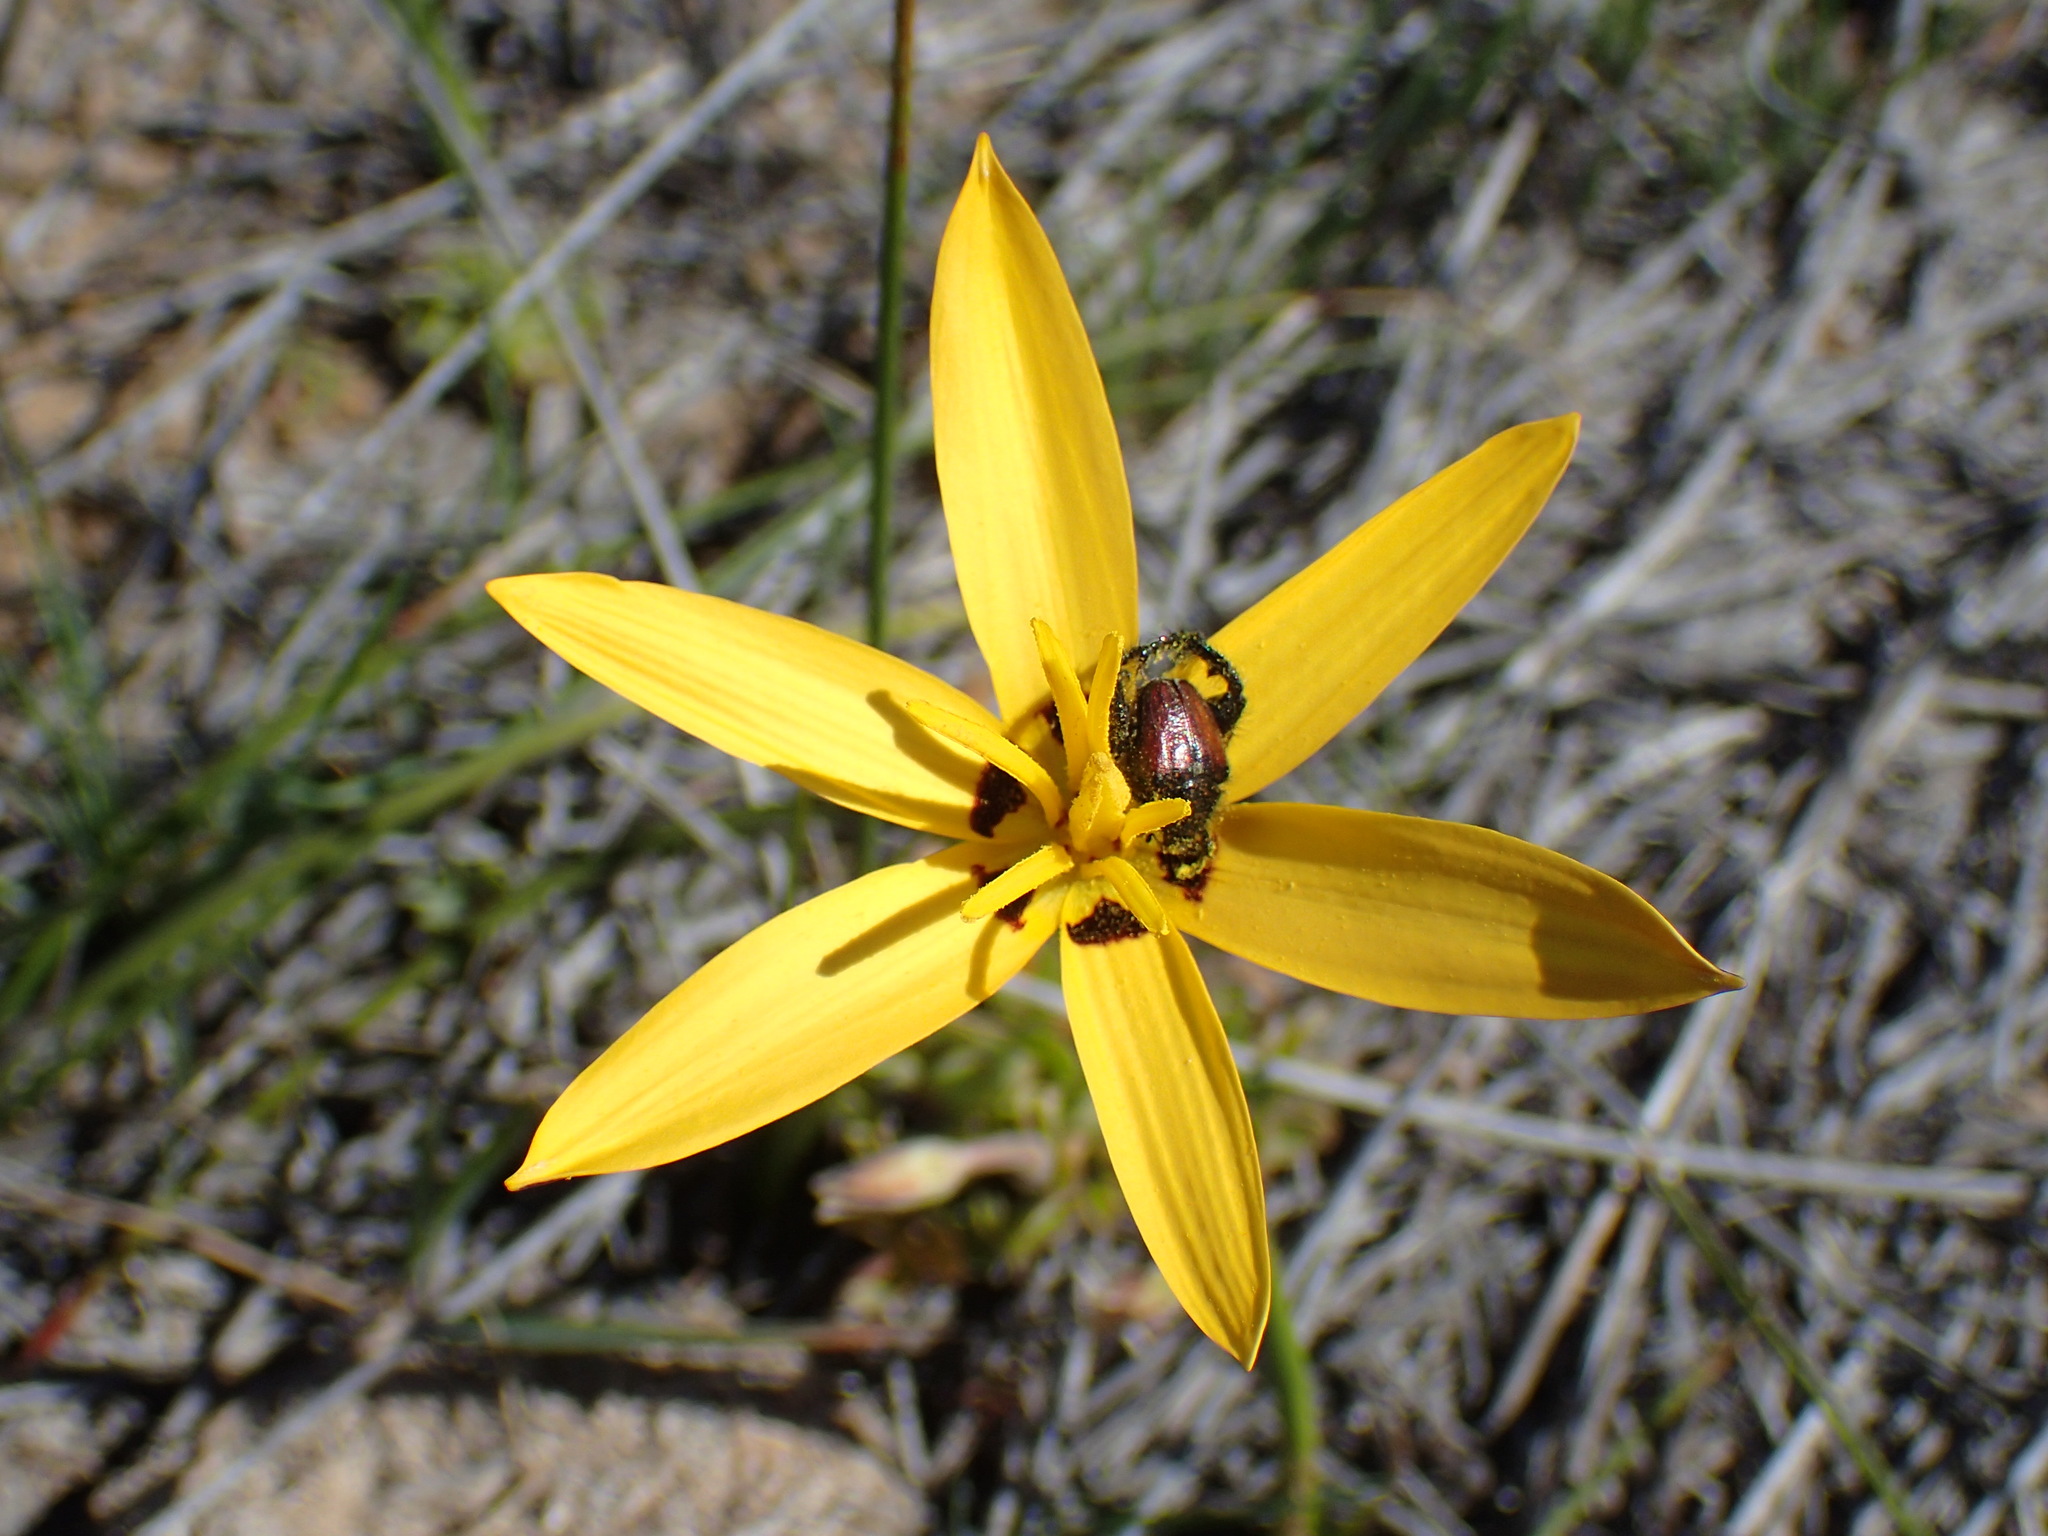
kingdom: Plantae
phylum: Tracheophyta
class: Liliopsida
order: Asparagales
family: Hypoxidaceae
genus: Pauridia
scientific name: Pauridia capensis
